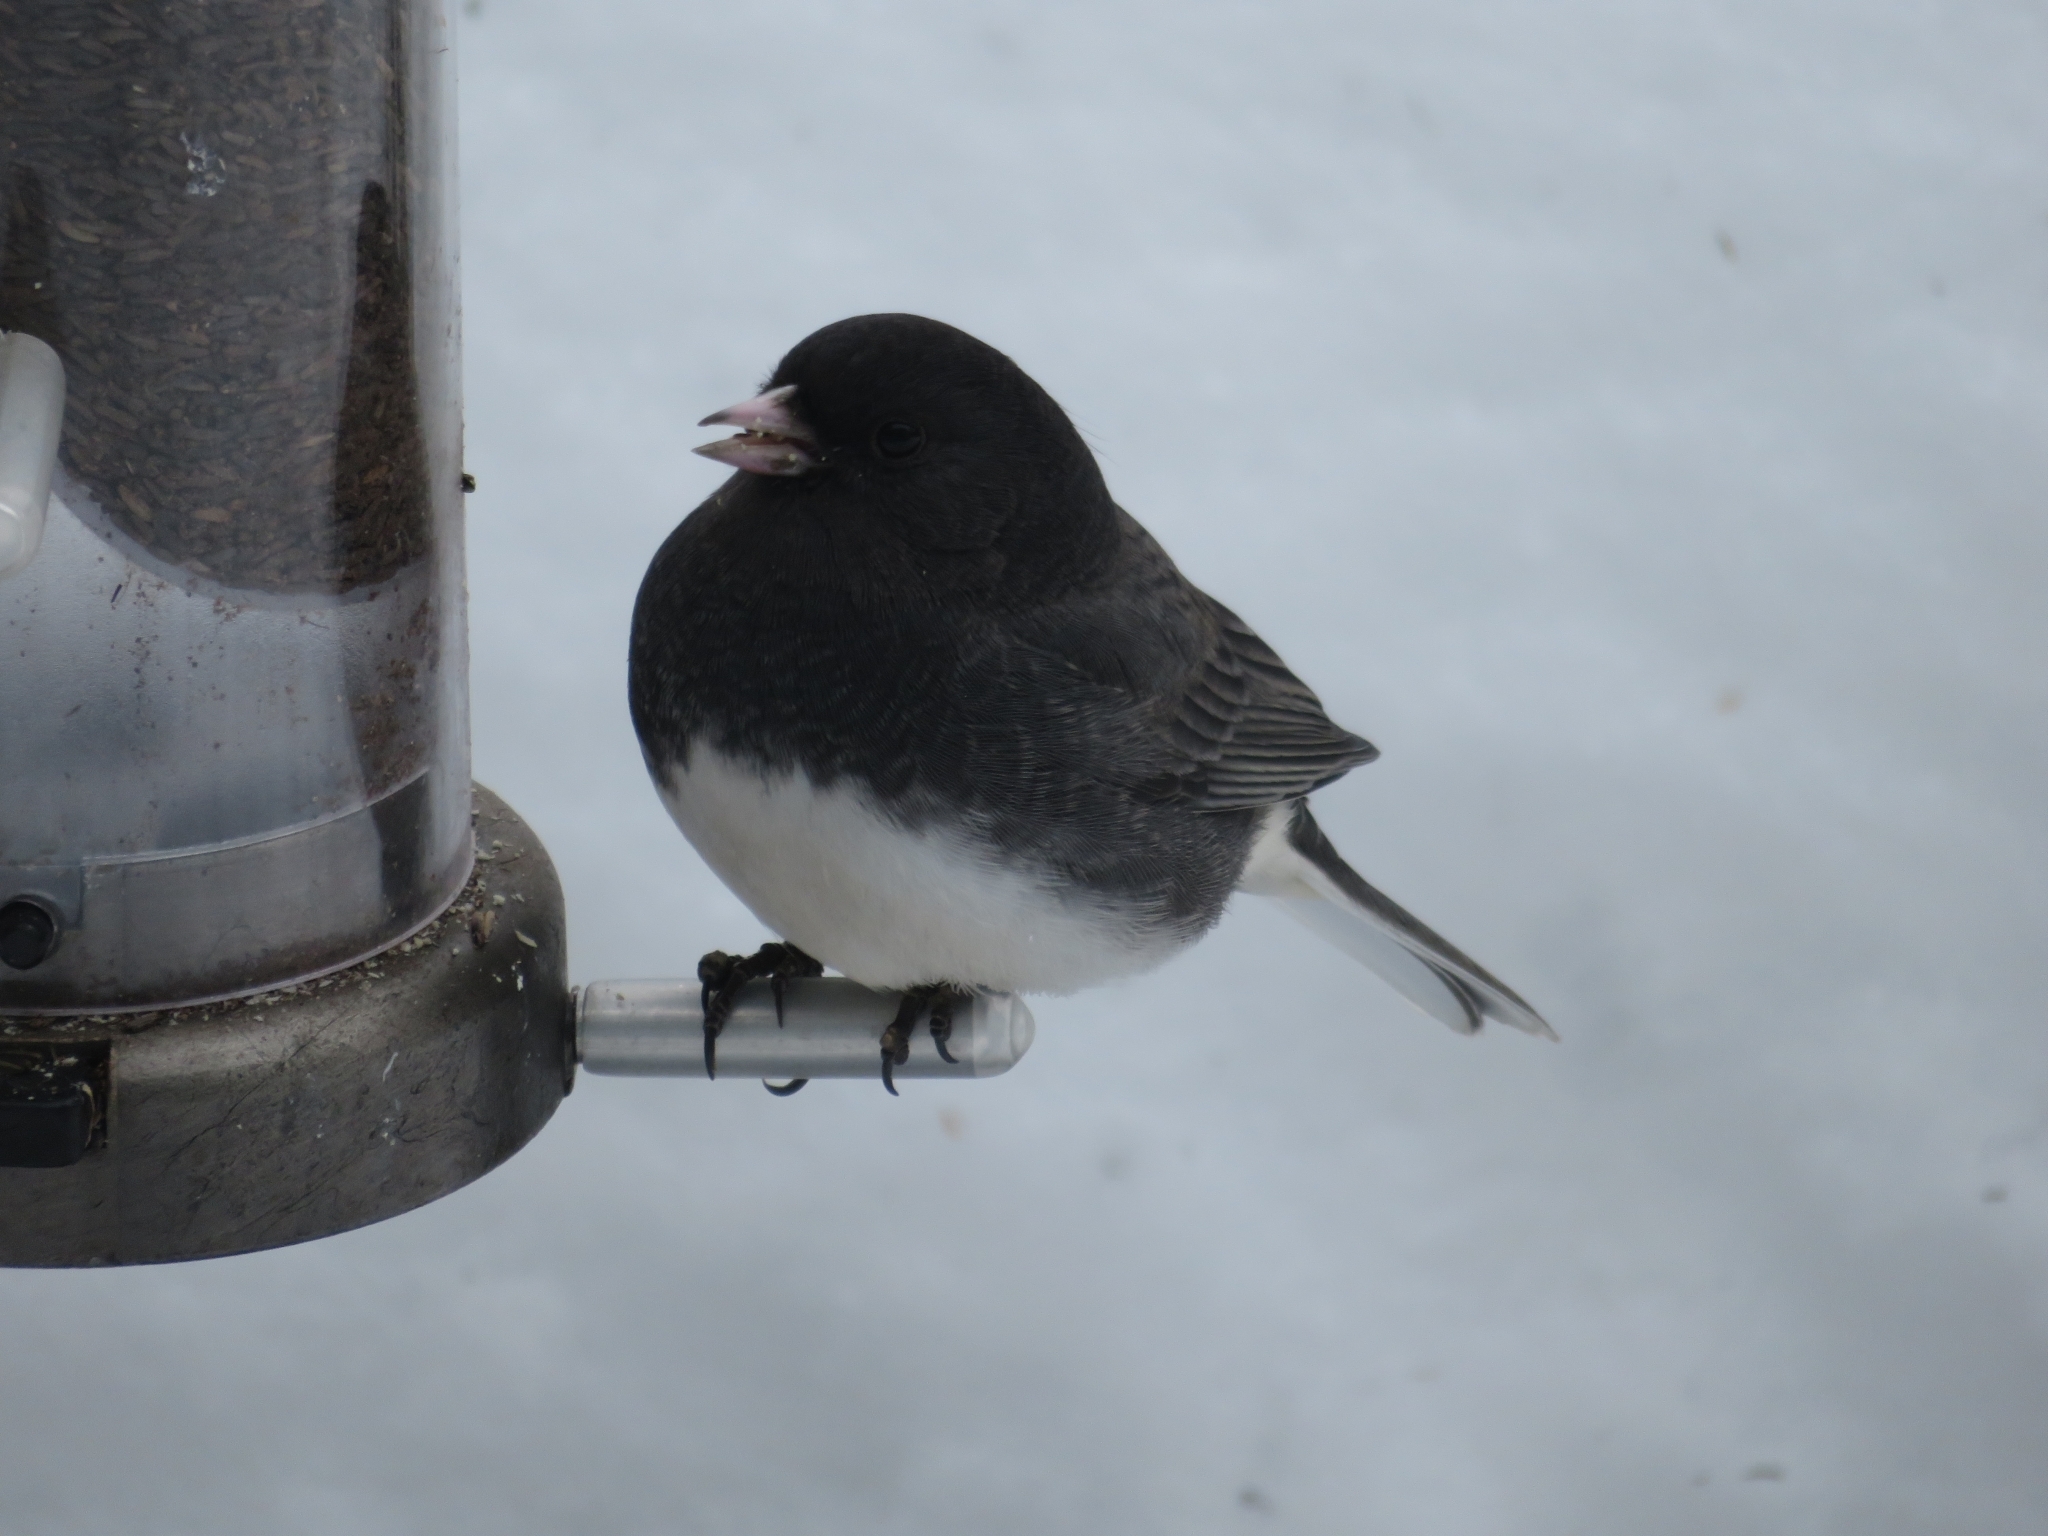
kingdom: Animalia
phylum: Chordata
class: Aves
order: Passeriformes
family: Passerellidae
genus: Junco
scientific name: Junco hyemalis
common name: Dark-eyed junco
